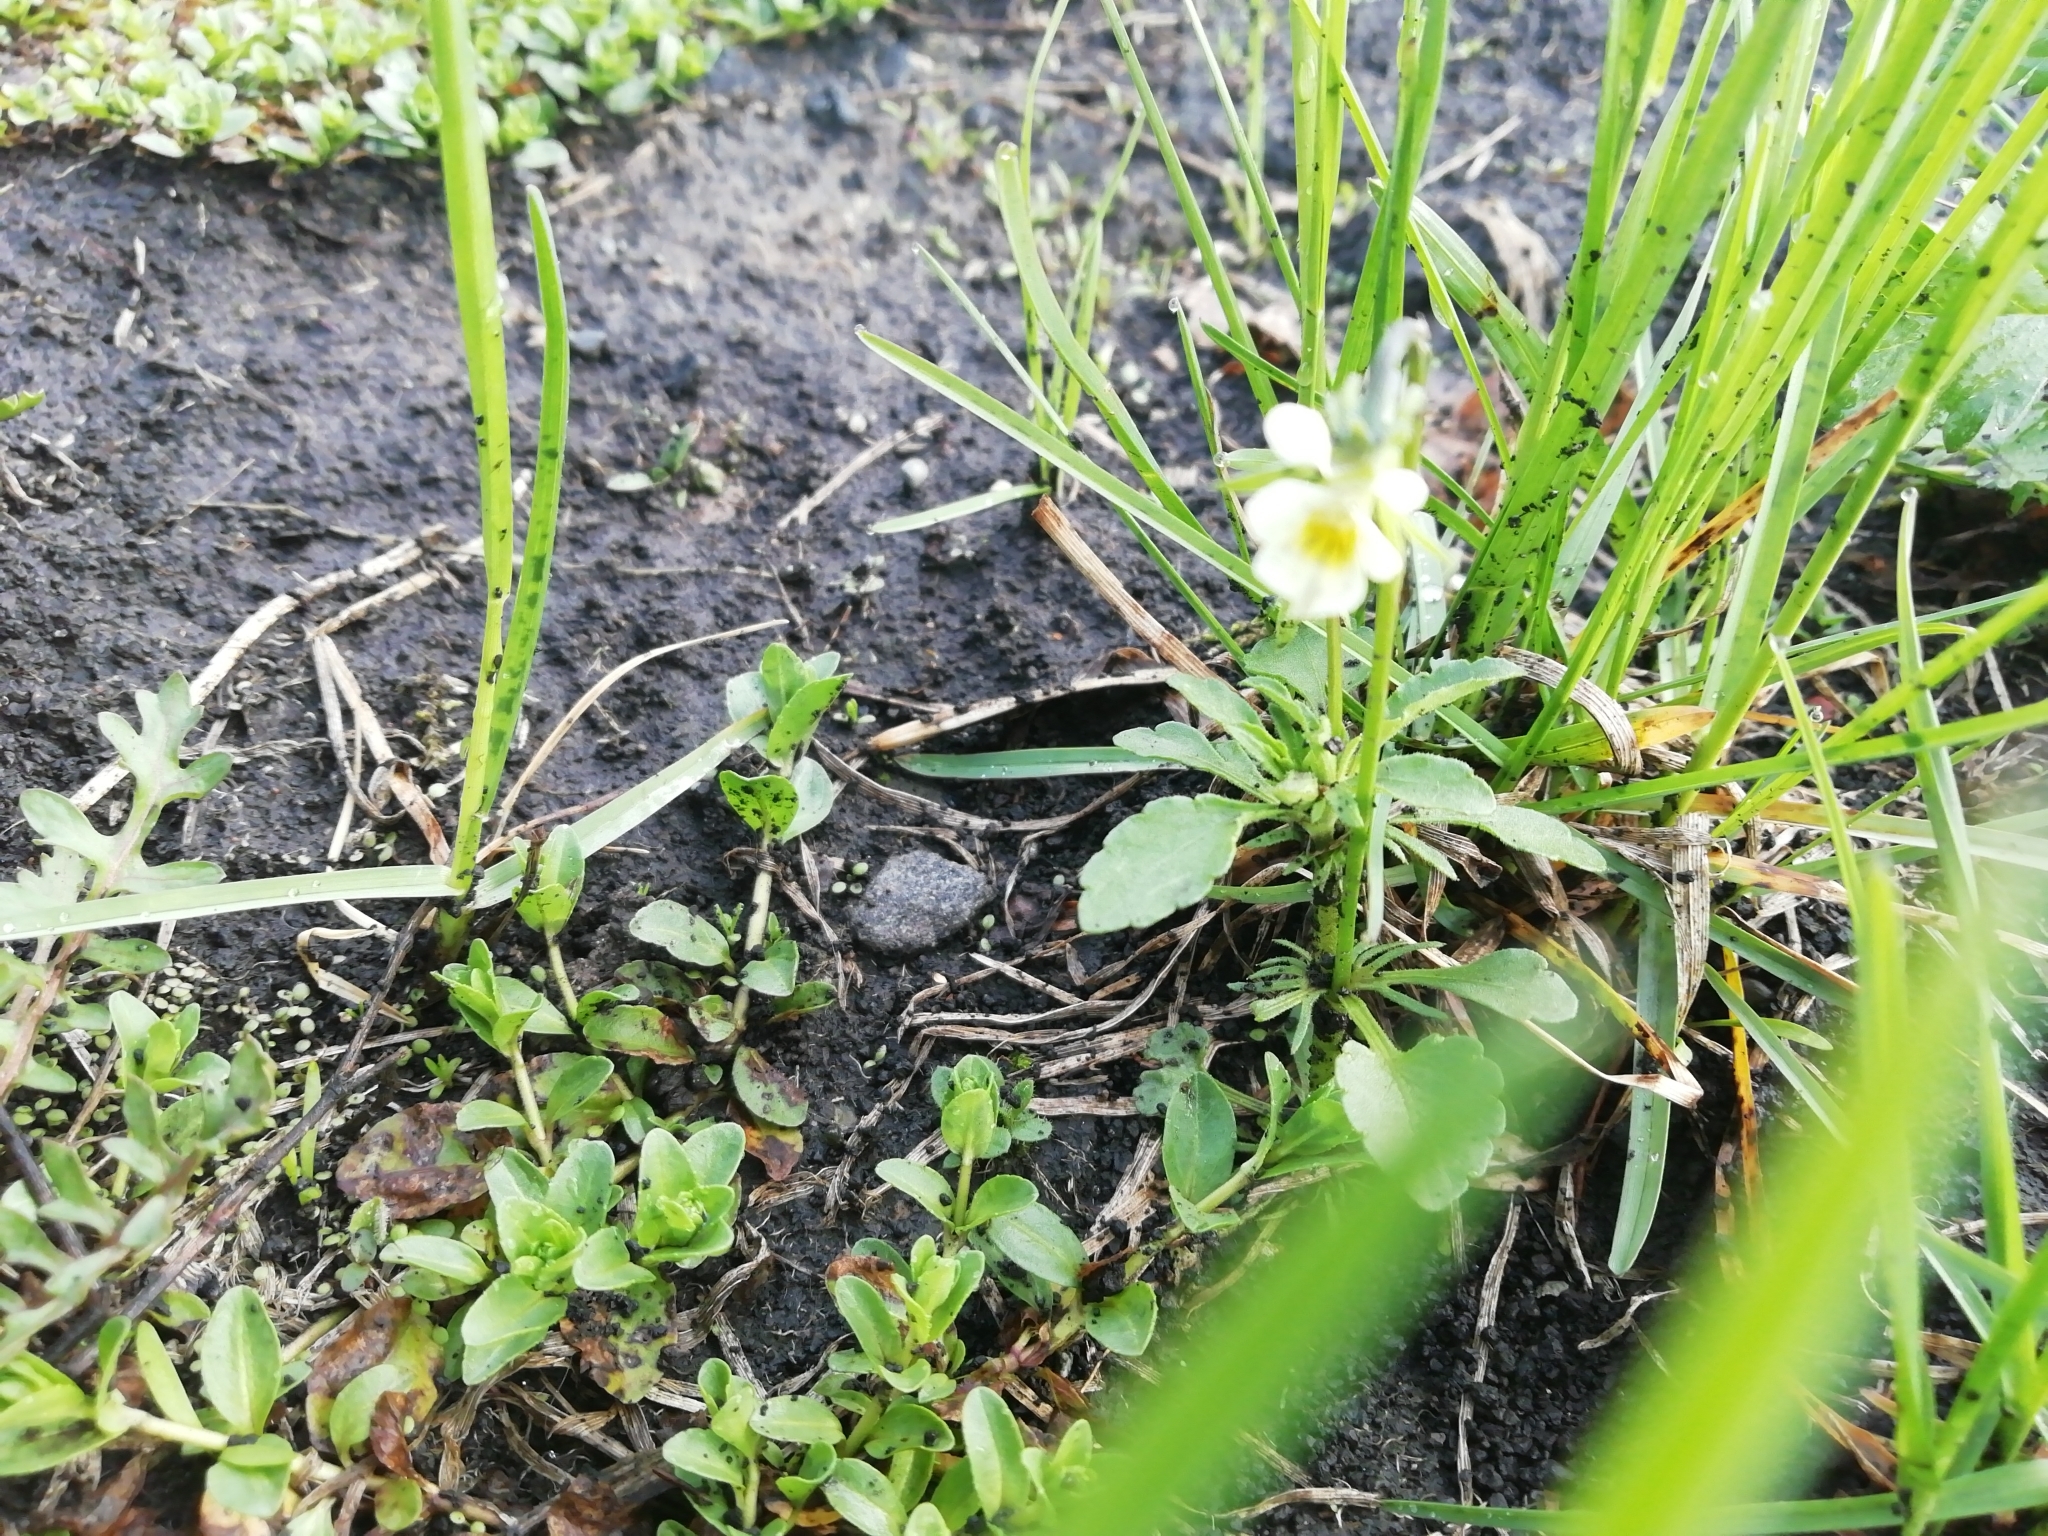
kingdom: Plantae
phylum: Tracheophyta
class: Magnoliopsida
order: Malpighiales
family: Violaceae
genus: Viola
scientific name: Viola arvensis
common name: Field pansy
